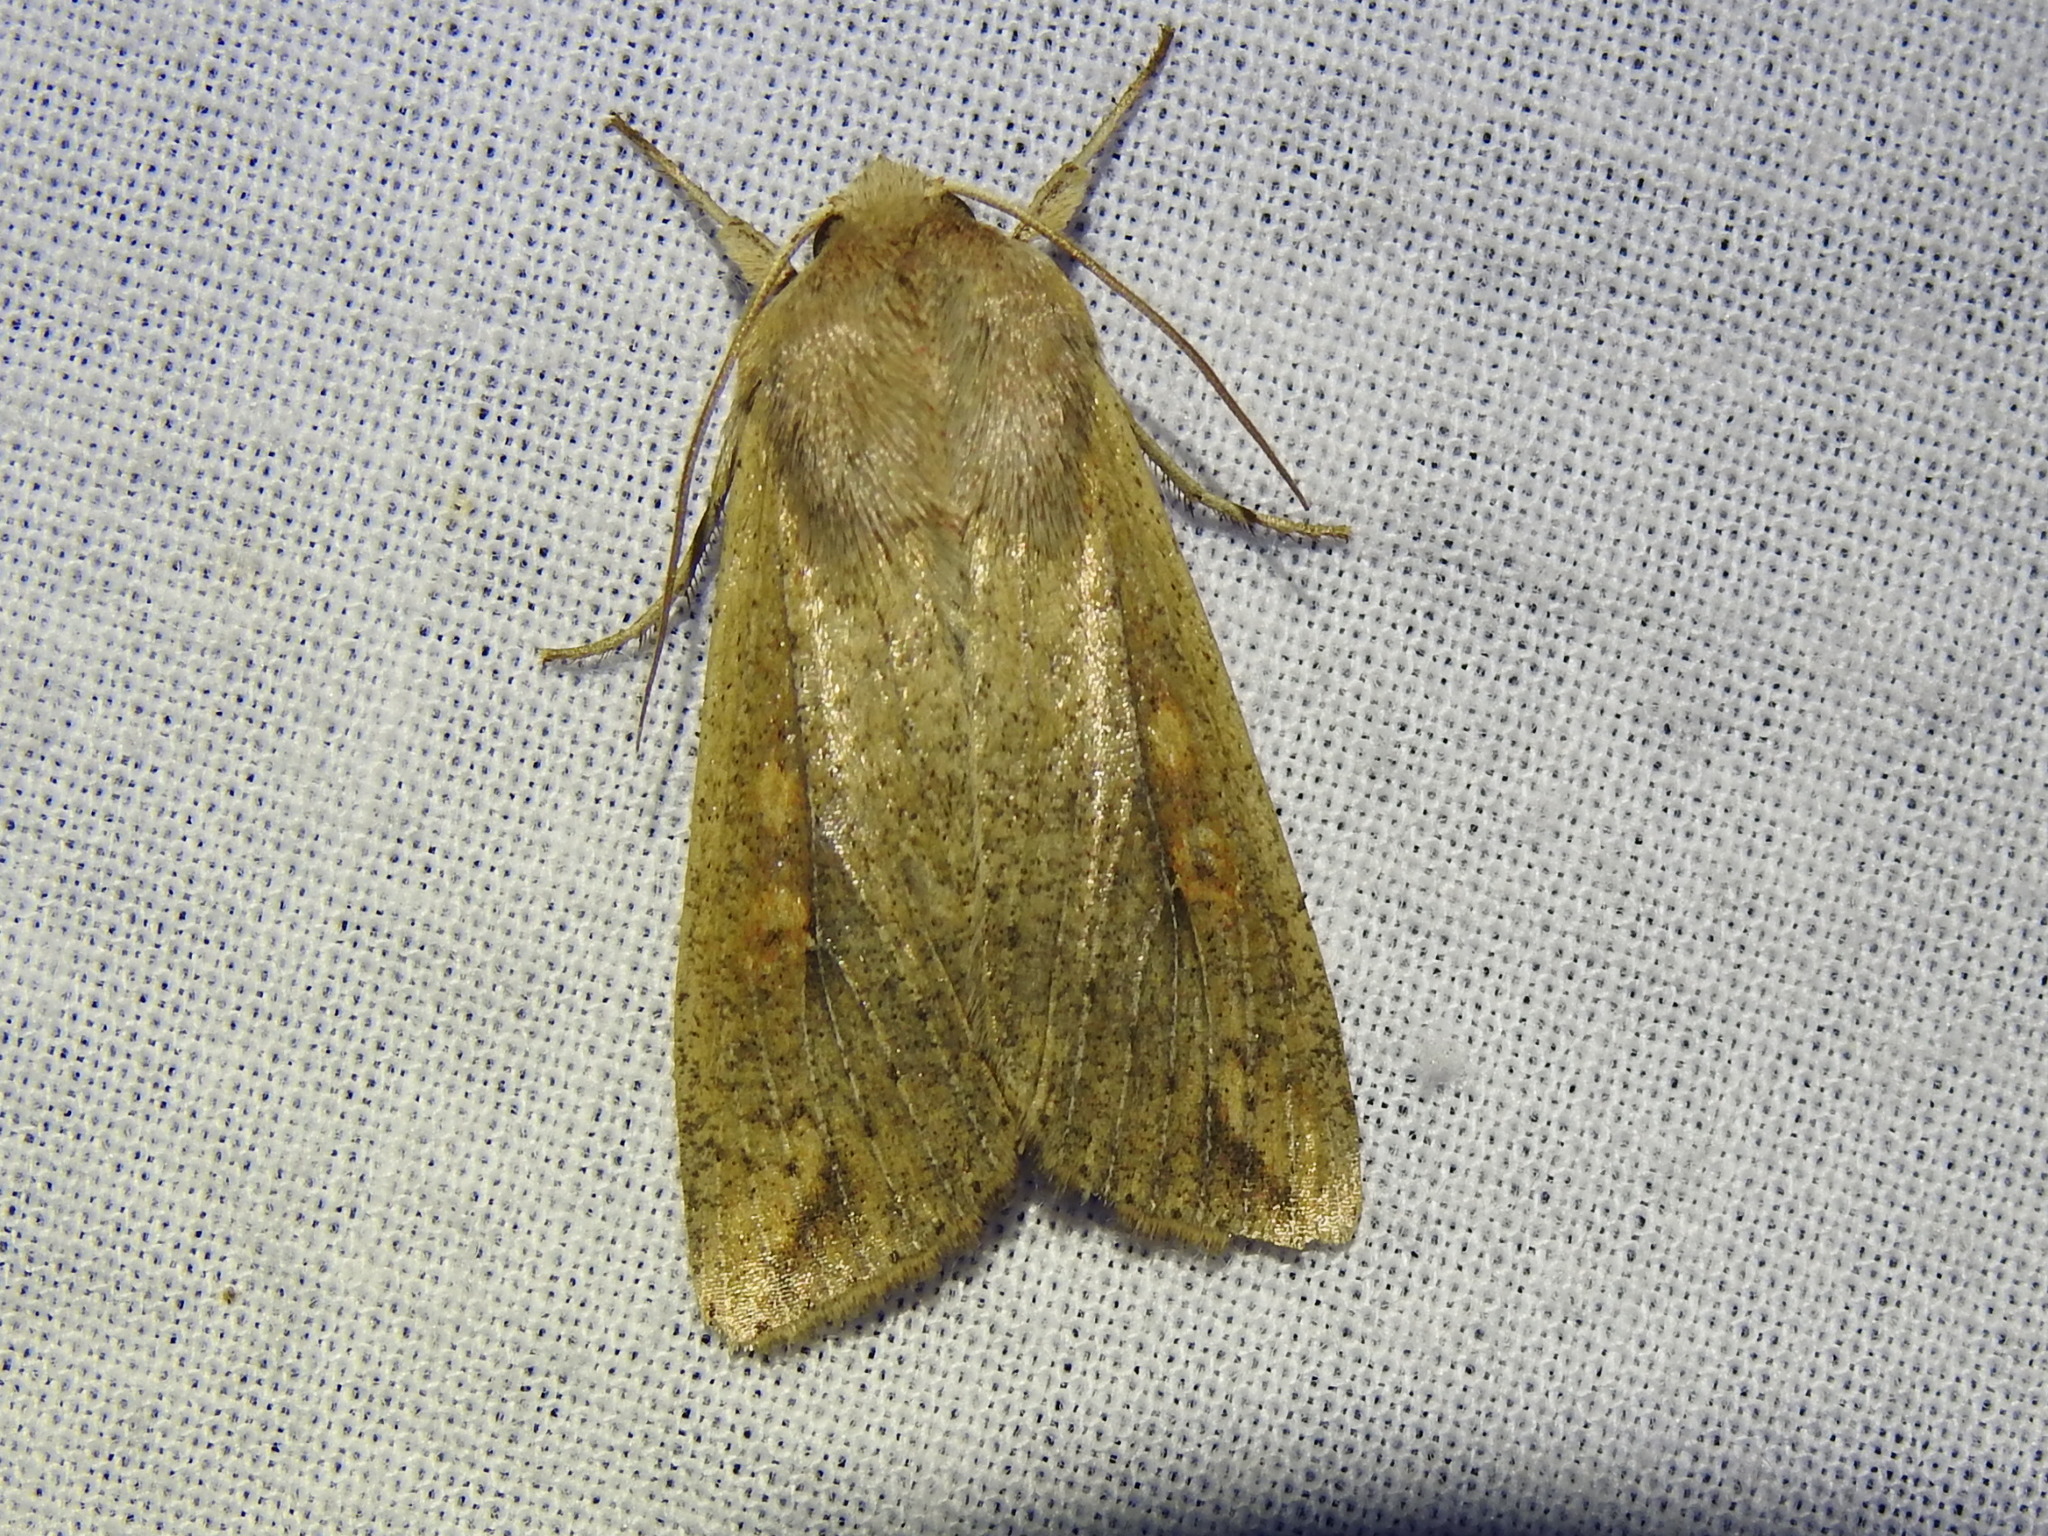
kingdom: Animalia
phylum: Arthropoda
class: Insecta
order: Lepidoptera
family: Noctuidae
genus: Mythimna
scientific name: Mythimna unipuncta
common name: White-speck
